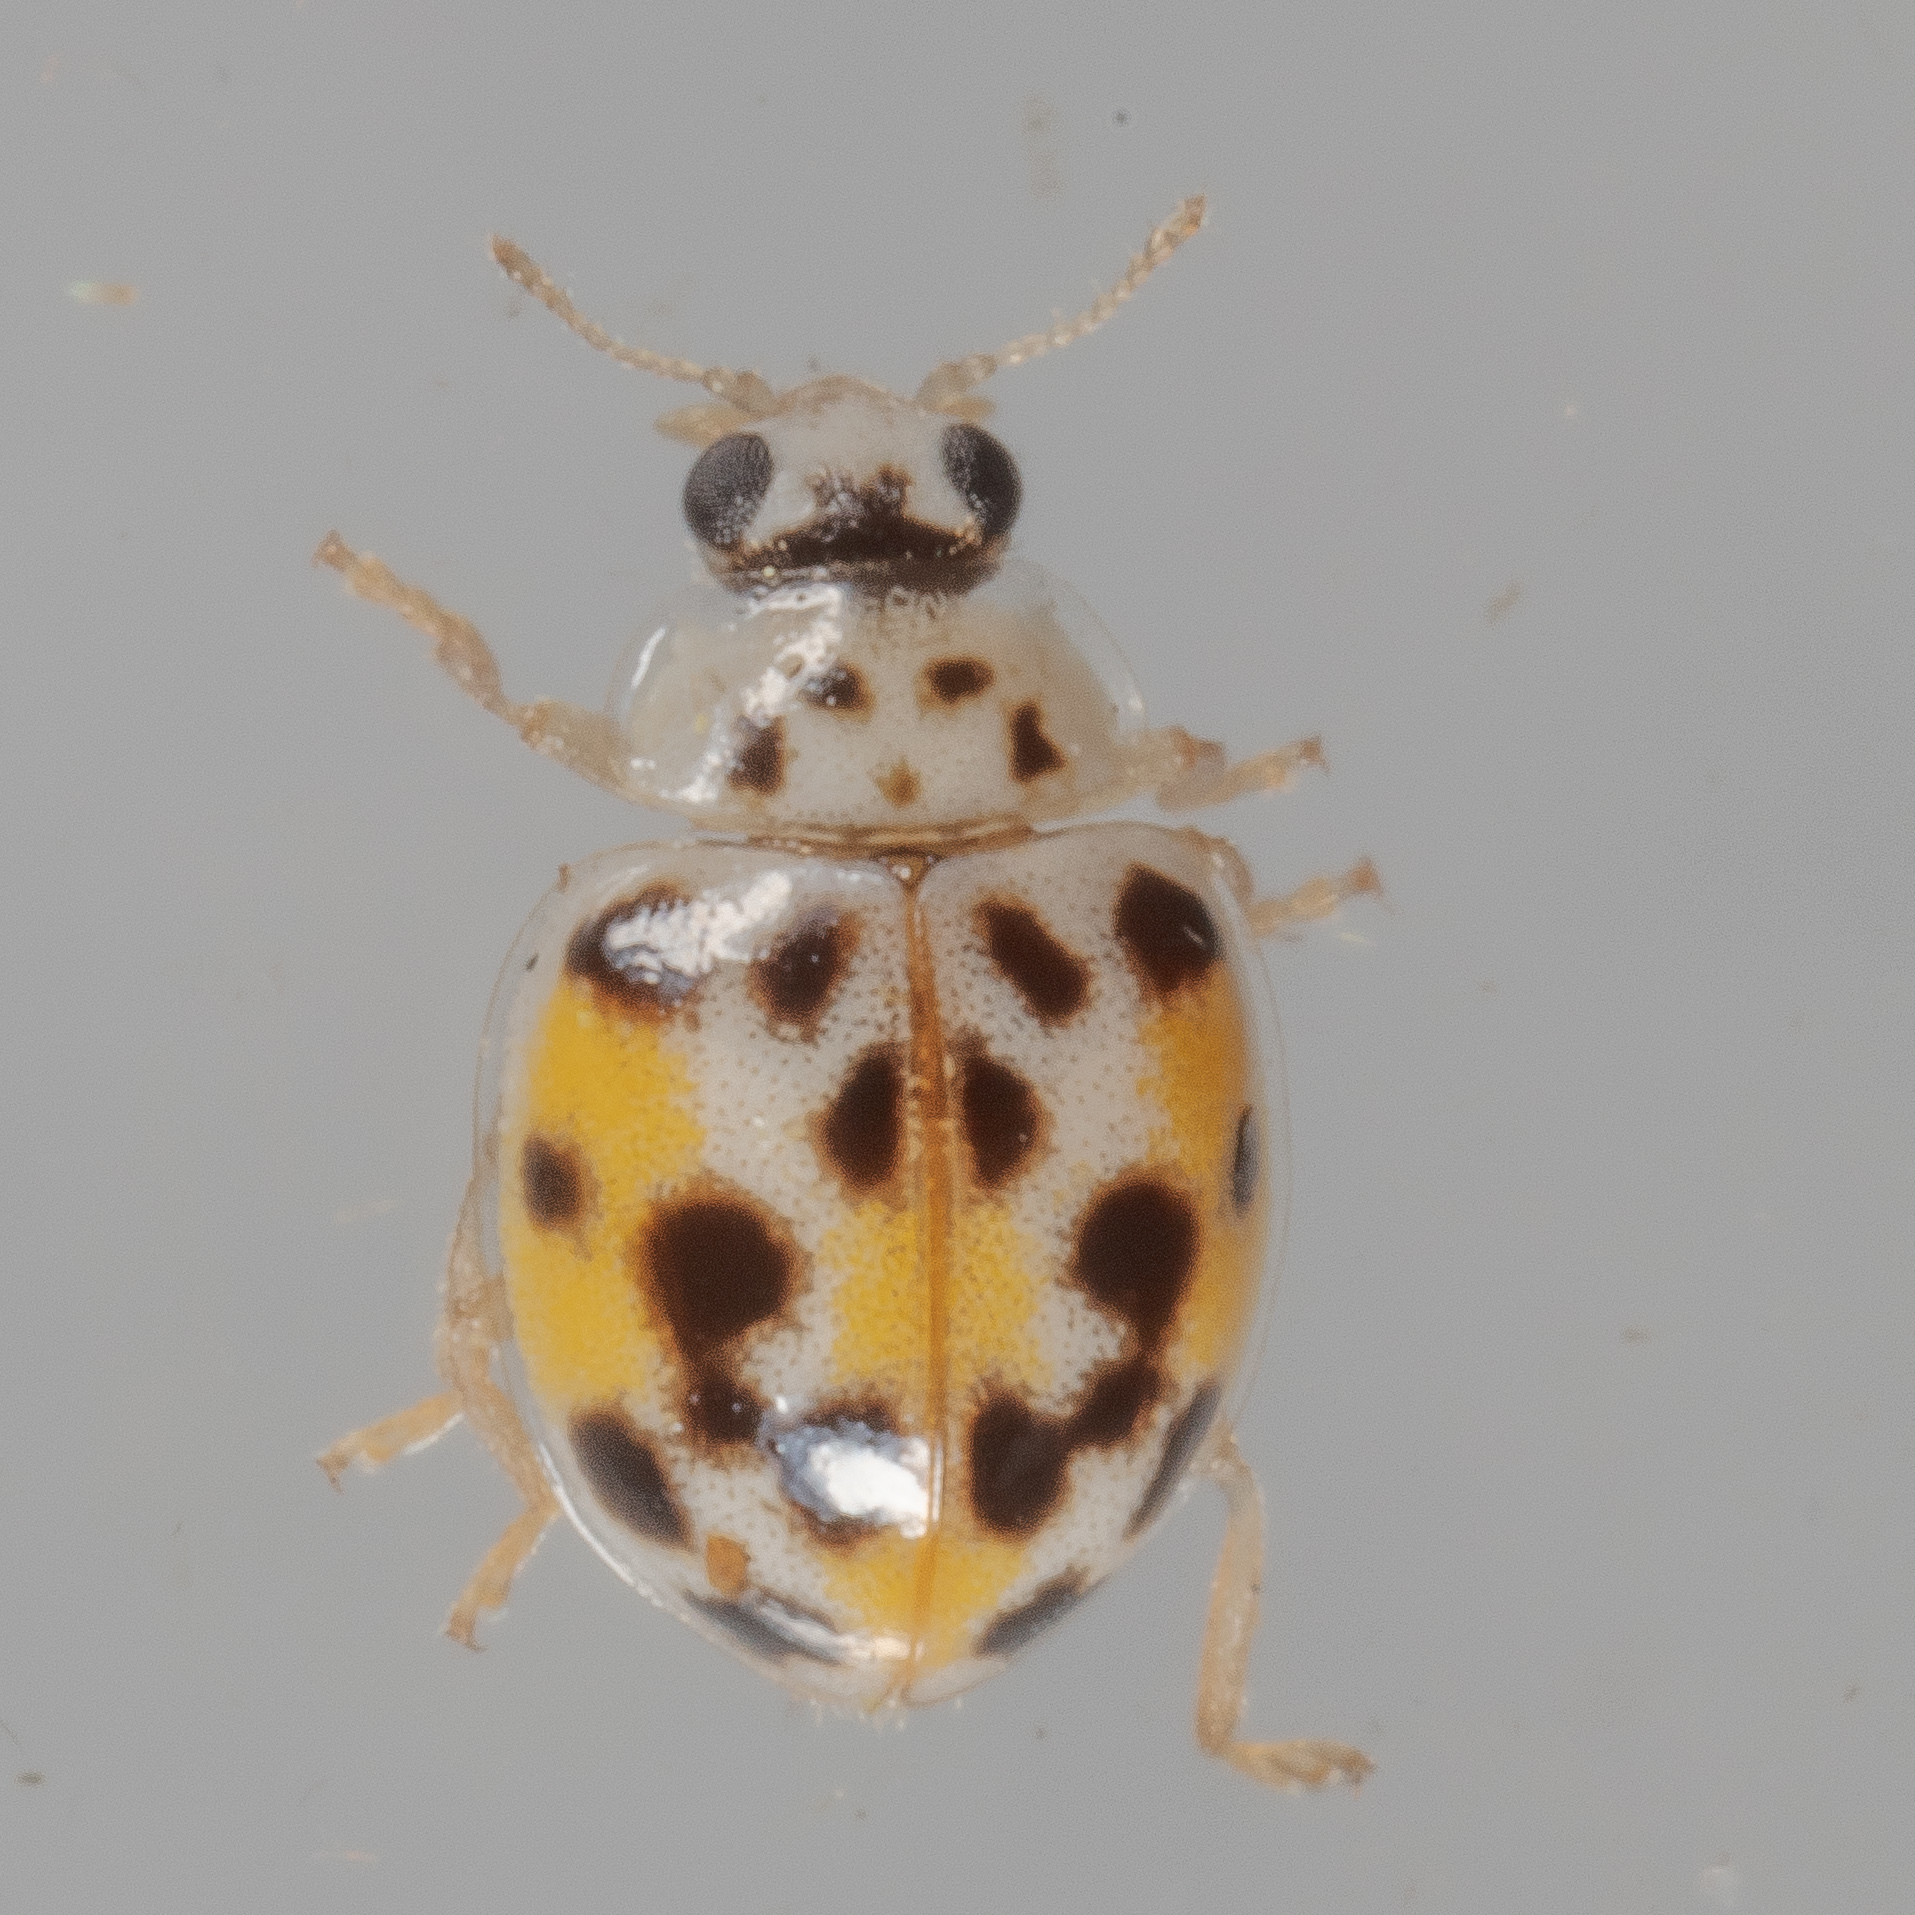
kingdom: Animalia
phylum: Arthropoda
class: Insecta
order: Coleoptera
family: Coccinellidae
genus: Psyllobora
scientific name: Psyllobora vigintimaculata
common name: Ladybird beetle
